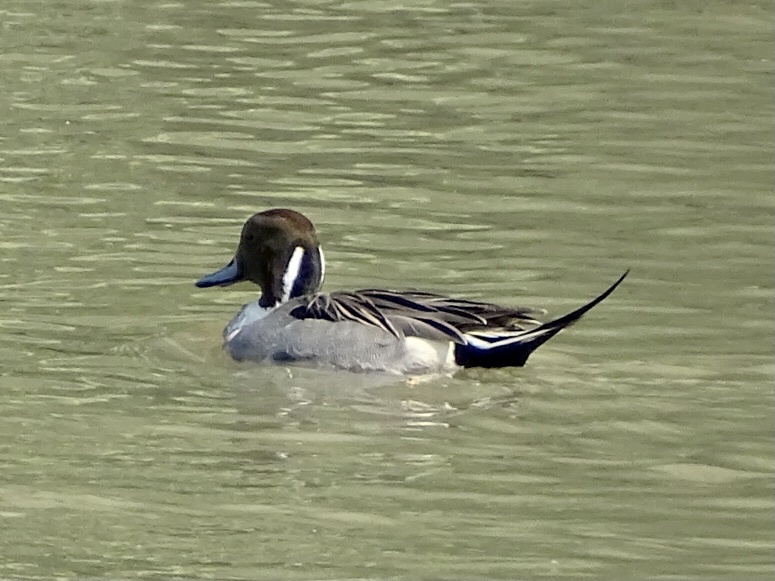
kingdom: Animalia
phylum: Chordata
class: Aves
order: Anseriformes
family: Anatidae
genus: Anas
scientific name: Anas acuta
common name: Northern pintail
